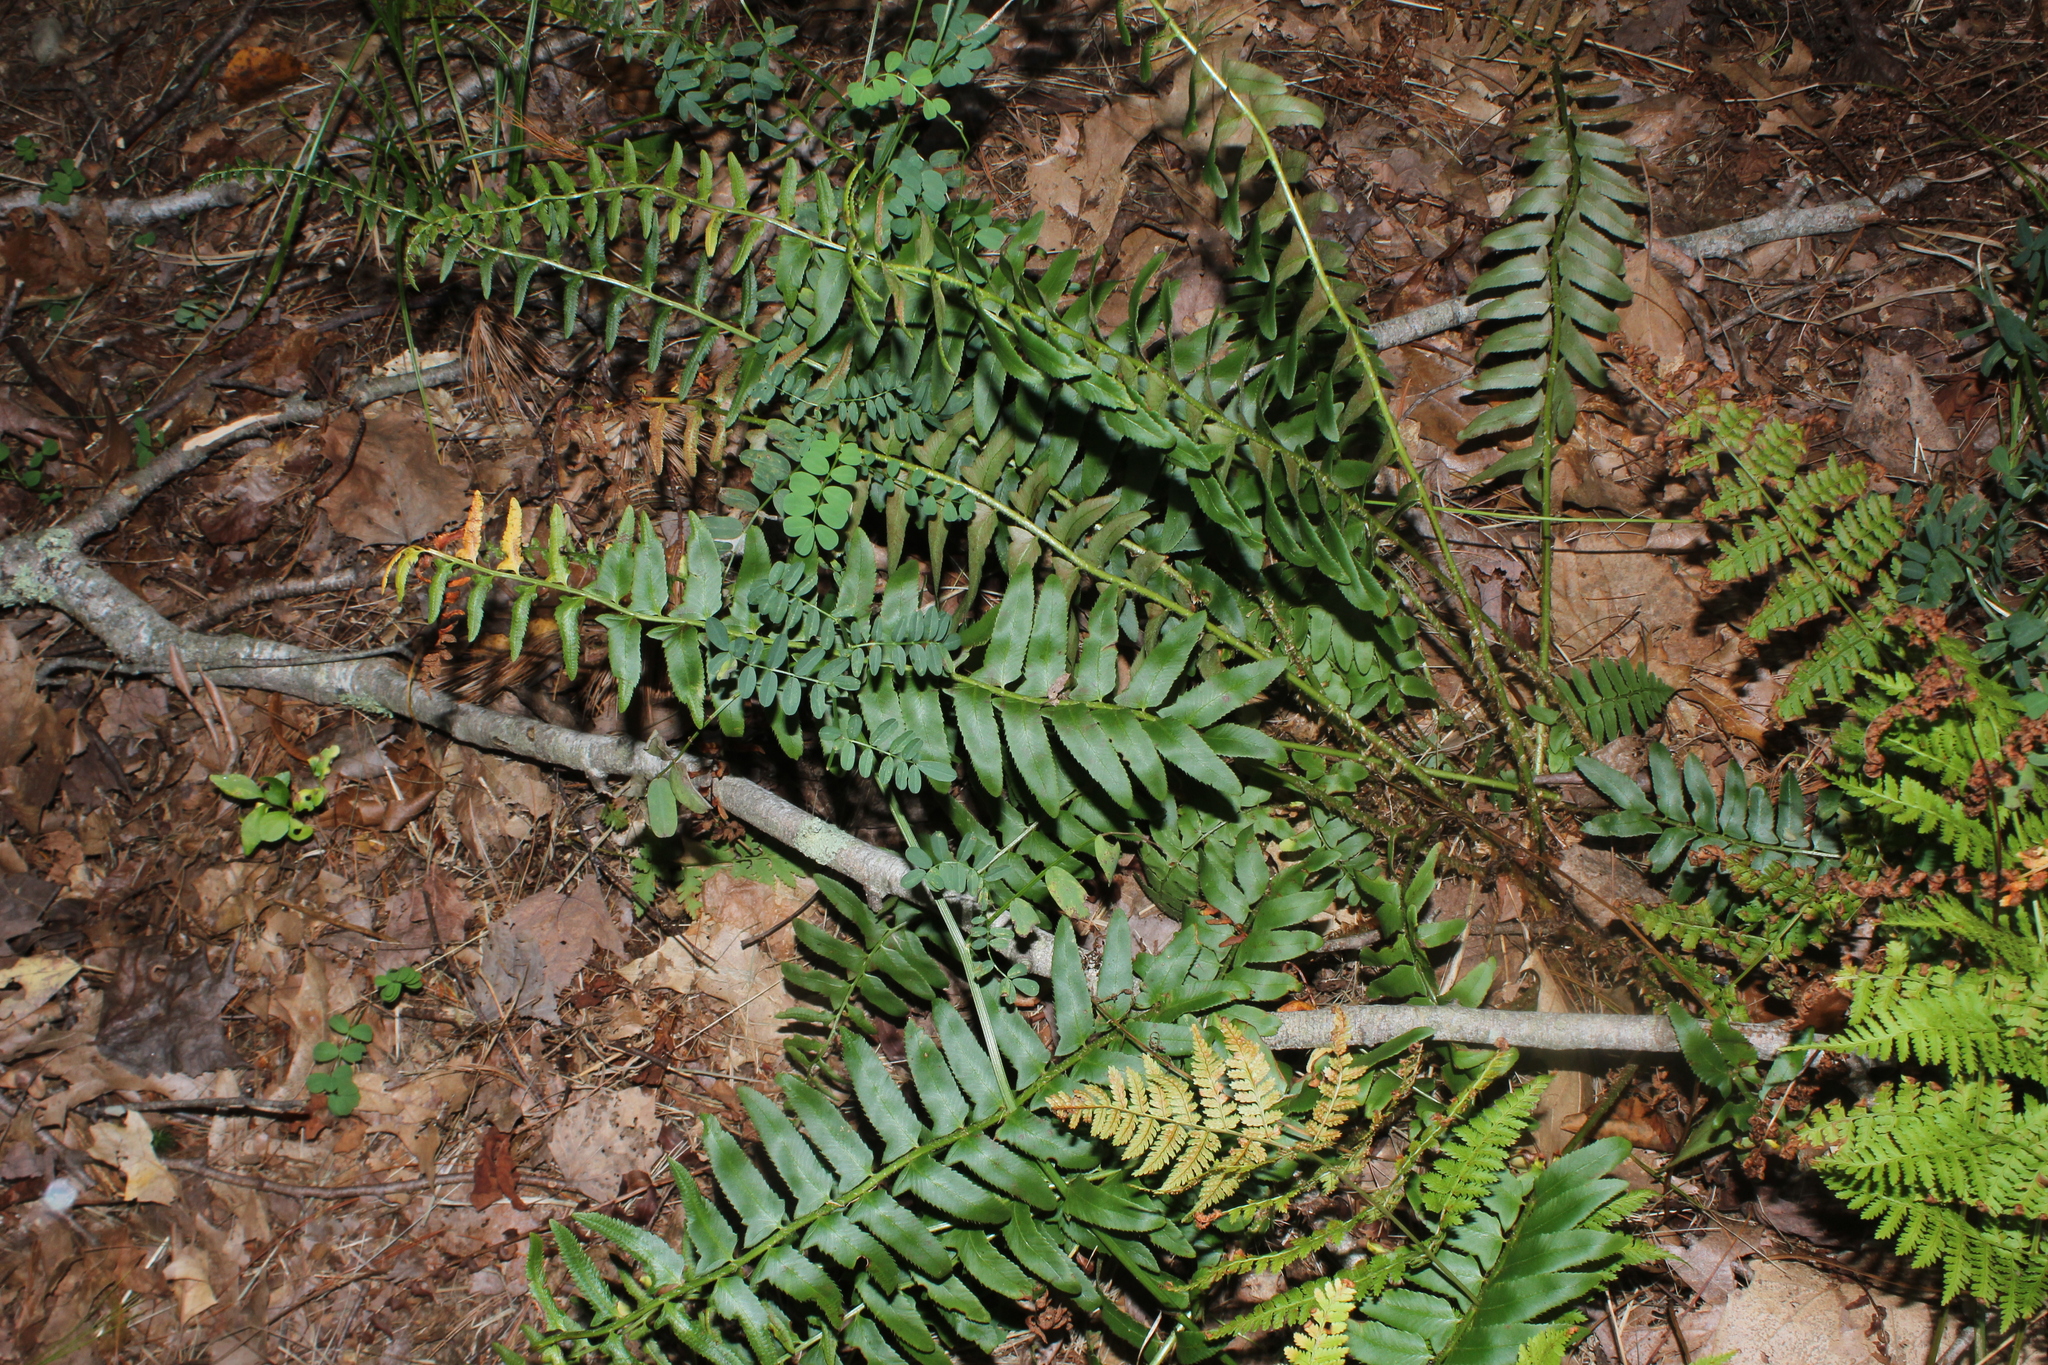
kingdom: Plantae
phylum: Tracheophyta
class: Polypodiopsida
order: Polypodiales
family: Dryopteridaceae
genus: Polystichum
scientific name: Polystichum acrostichoides
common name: Christmas fern
